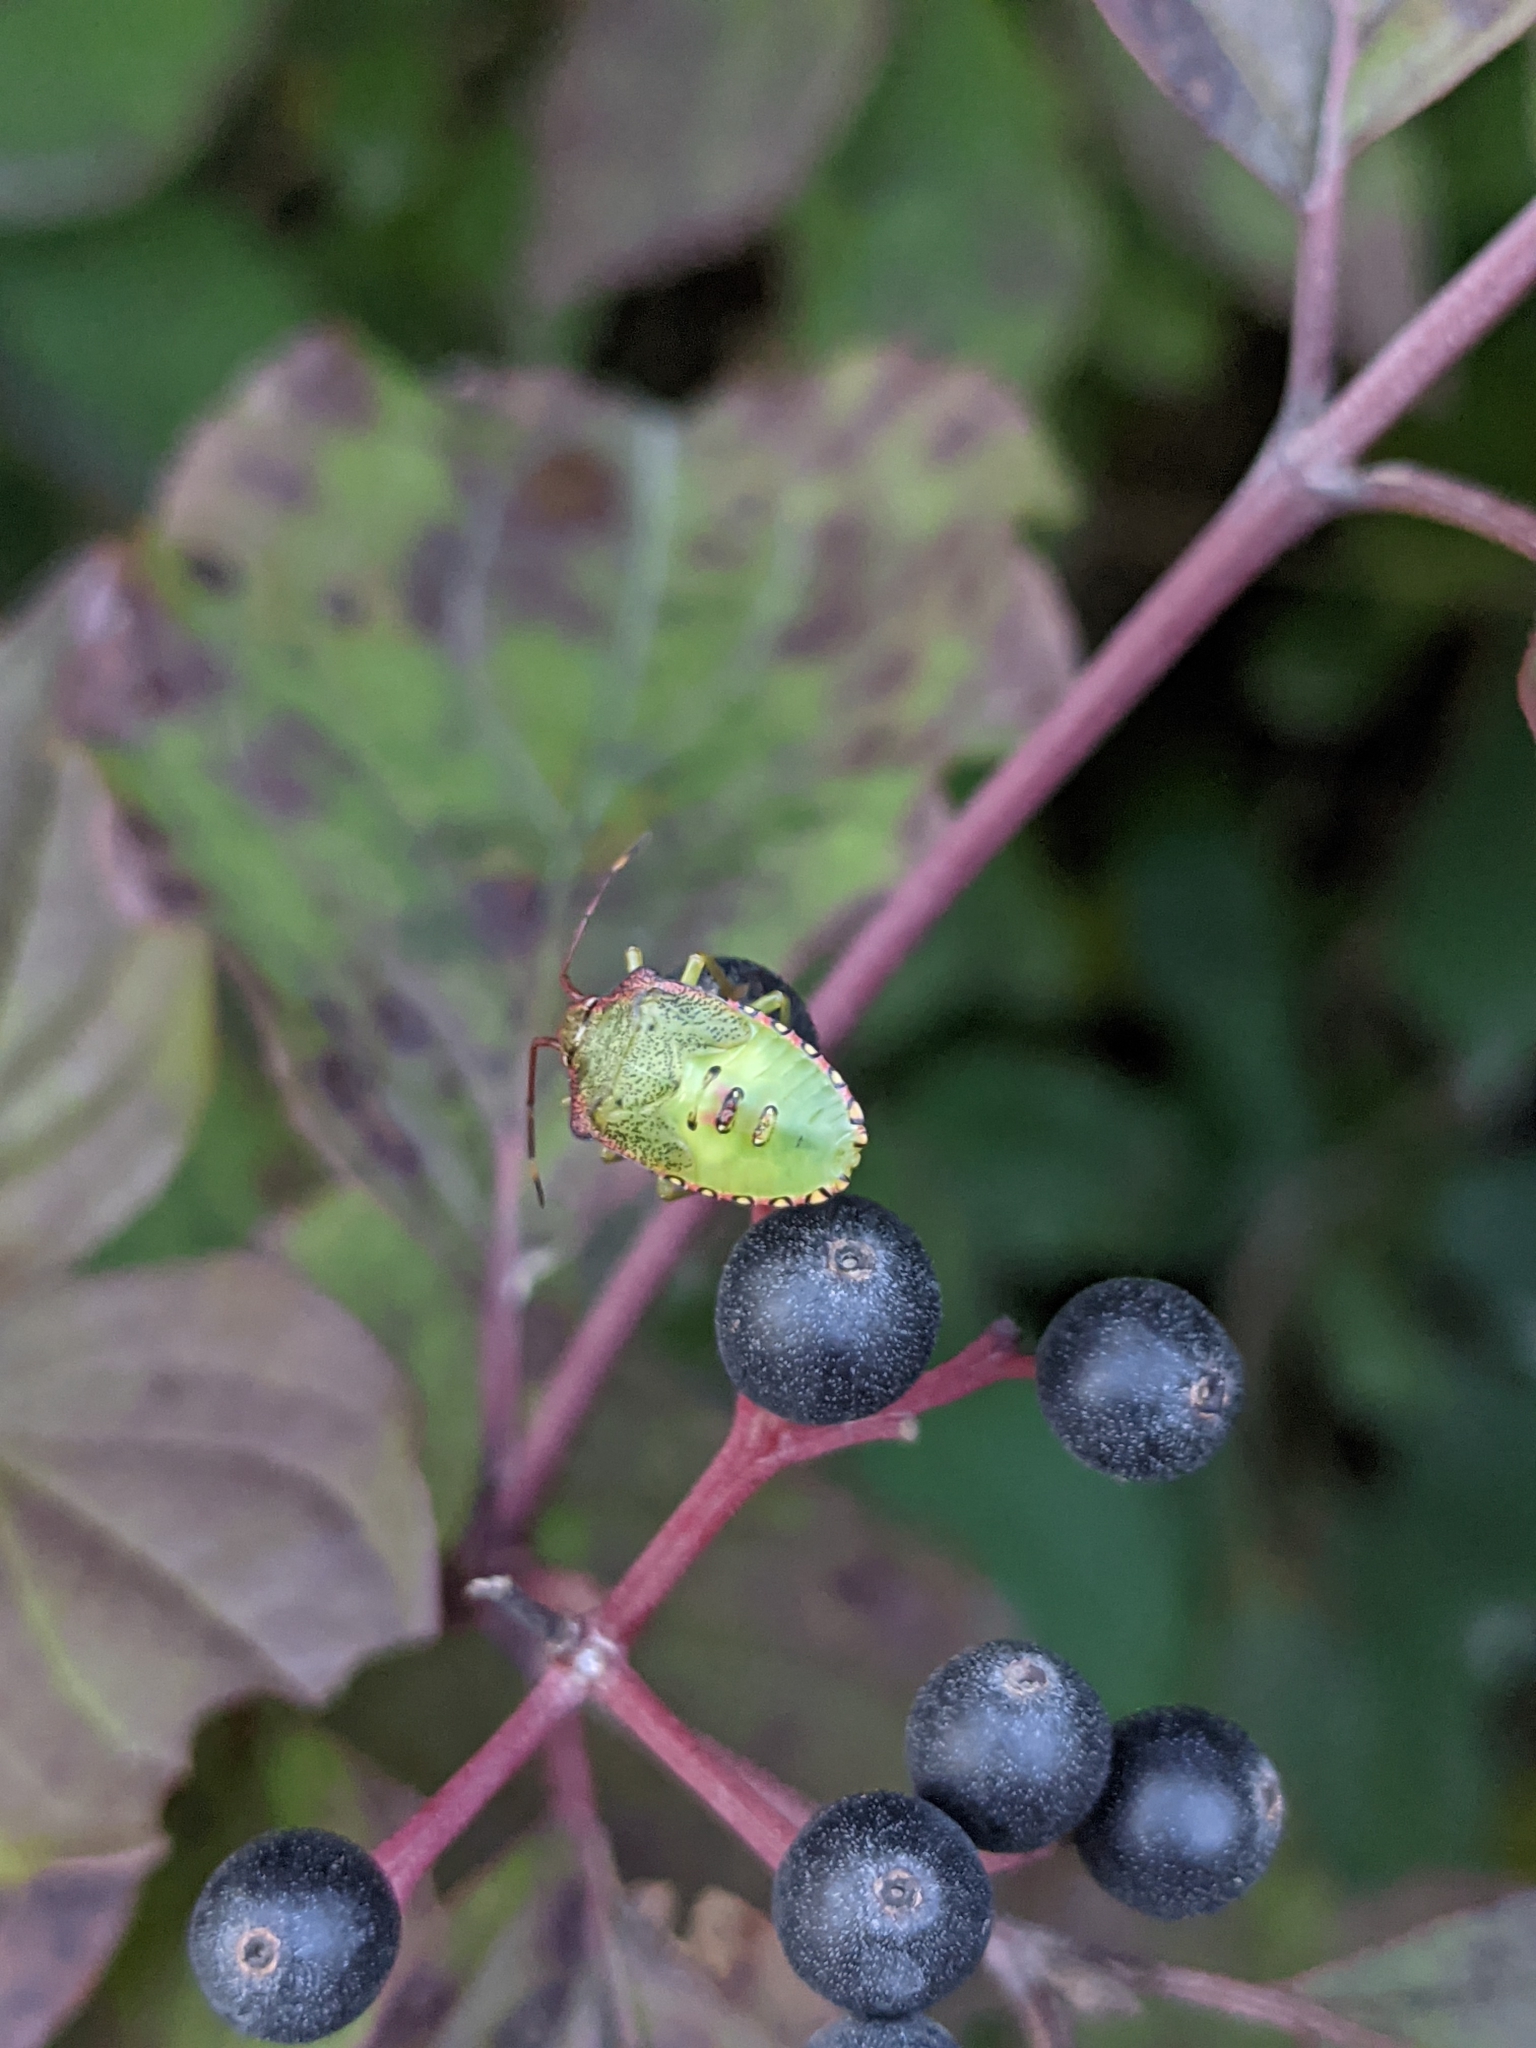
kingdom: Animalia
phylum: Arthropoda
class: Insecta
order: Hemiptera
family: Acanthosomatidae
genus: Acanthosoma
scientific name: Acanthosoma haemorrhoidale
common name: Hawthorn shieldbug
